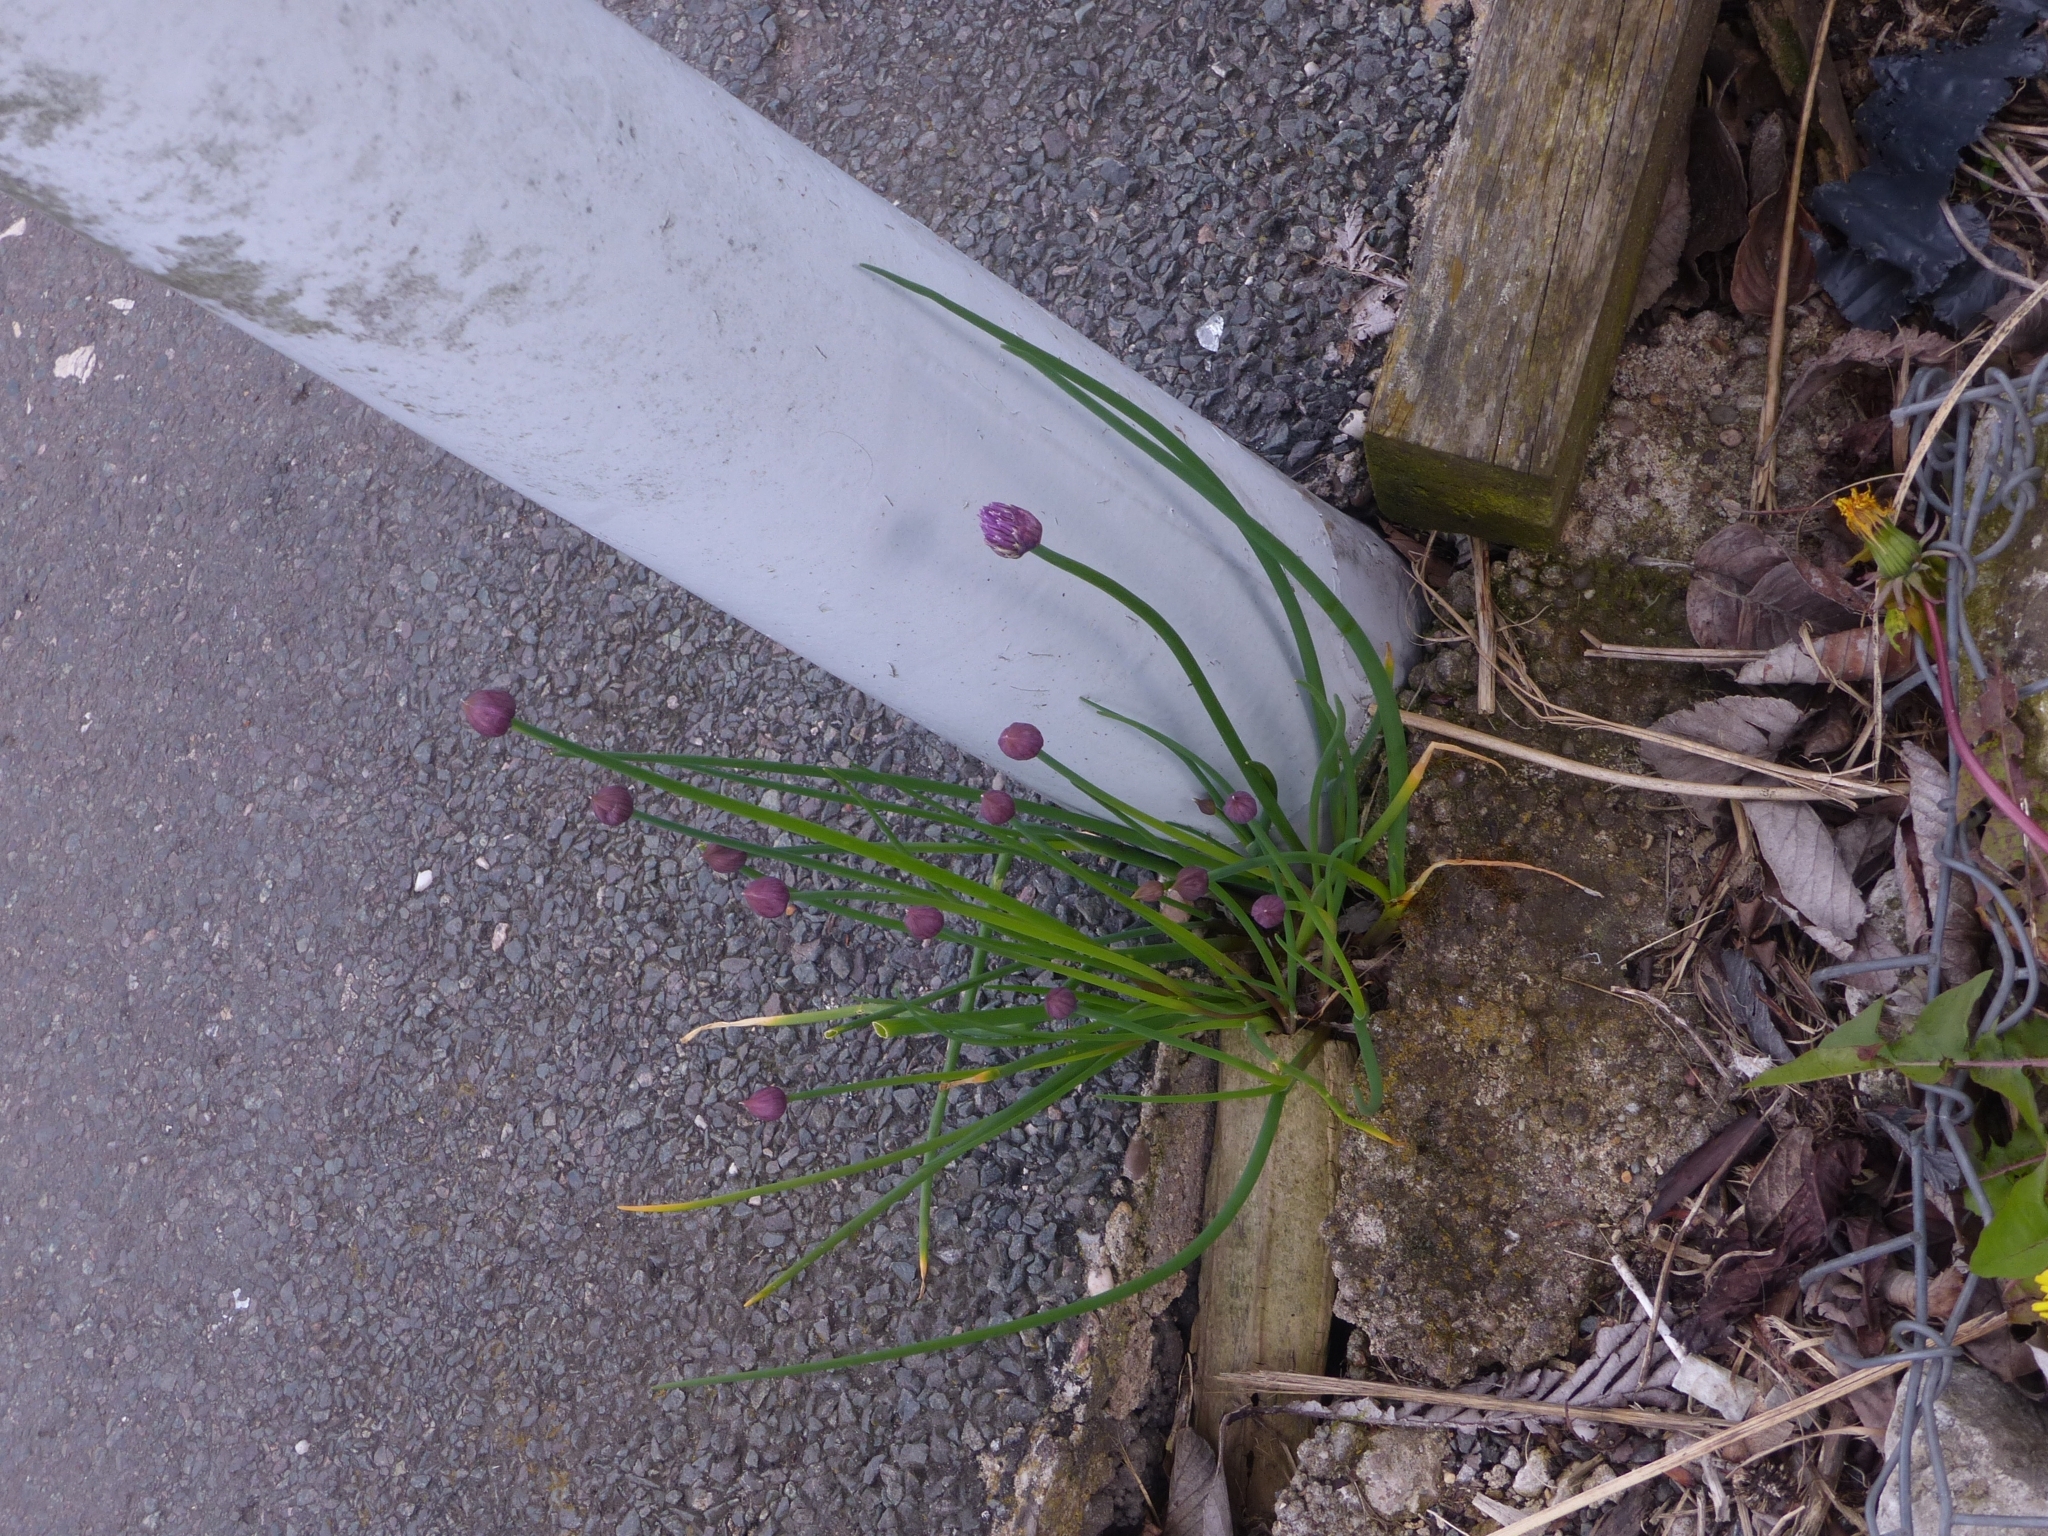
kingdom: Plantae
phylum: Tracheophyta
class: Liliopsida
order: Asparagales
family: Amaryllidaceae
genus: Allium
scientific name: Allium schoenoprasum
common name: Chives
